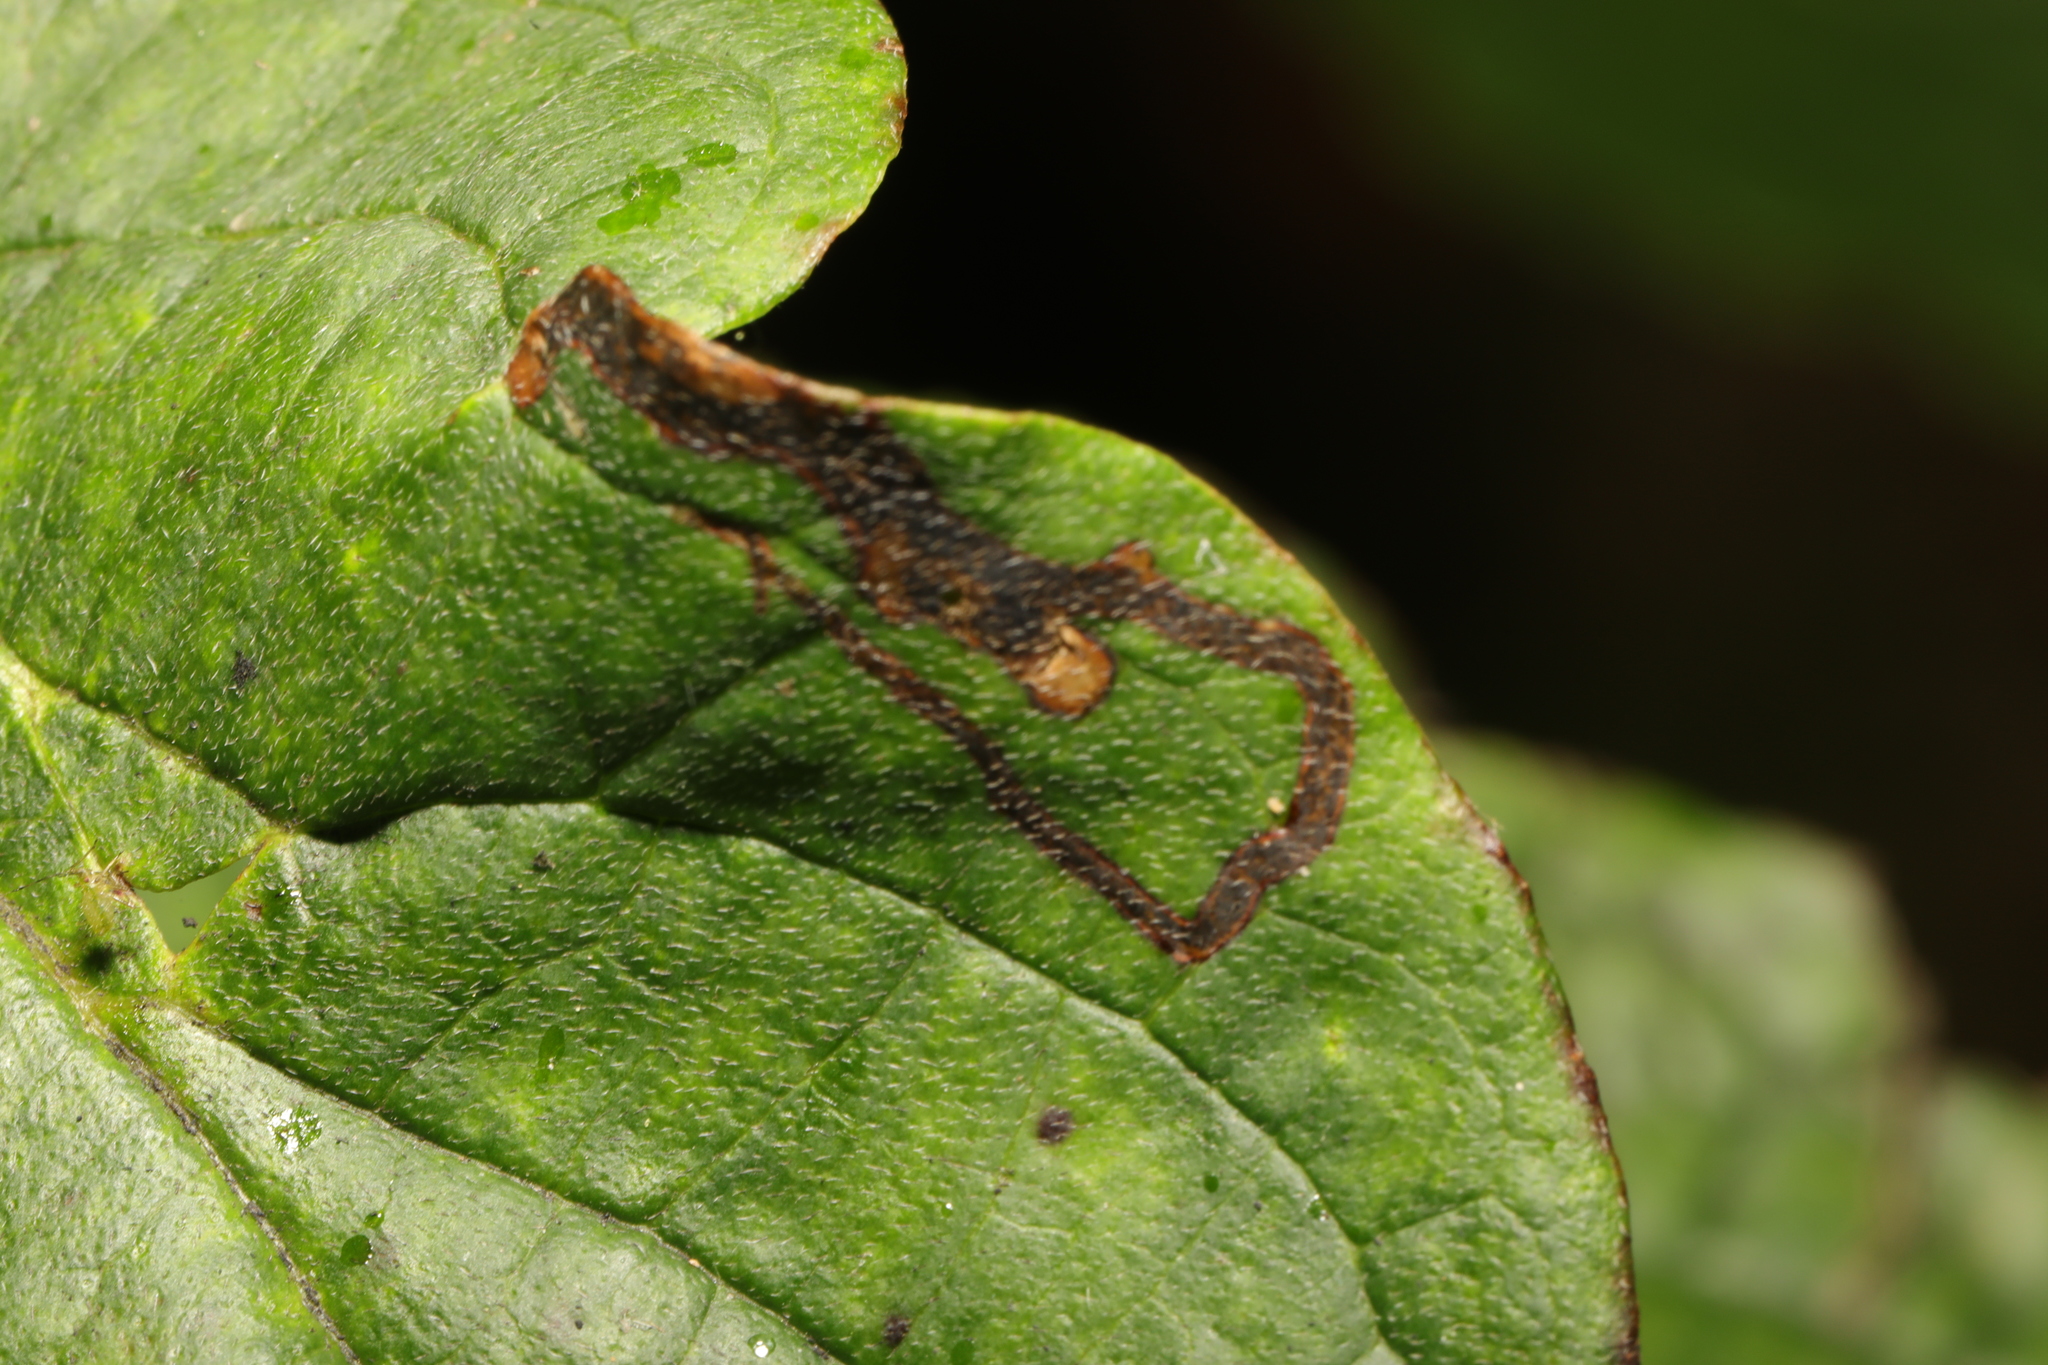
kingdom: Animalia
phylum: Arthropoda
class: Insecta
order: Diptera
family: Agromyzidae
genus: Phytomyza
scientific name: Phytomyza agromyzina
